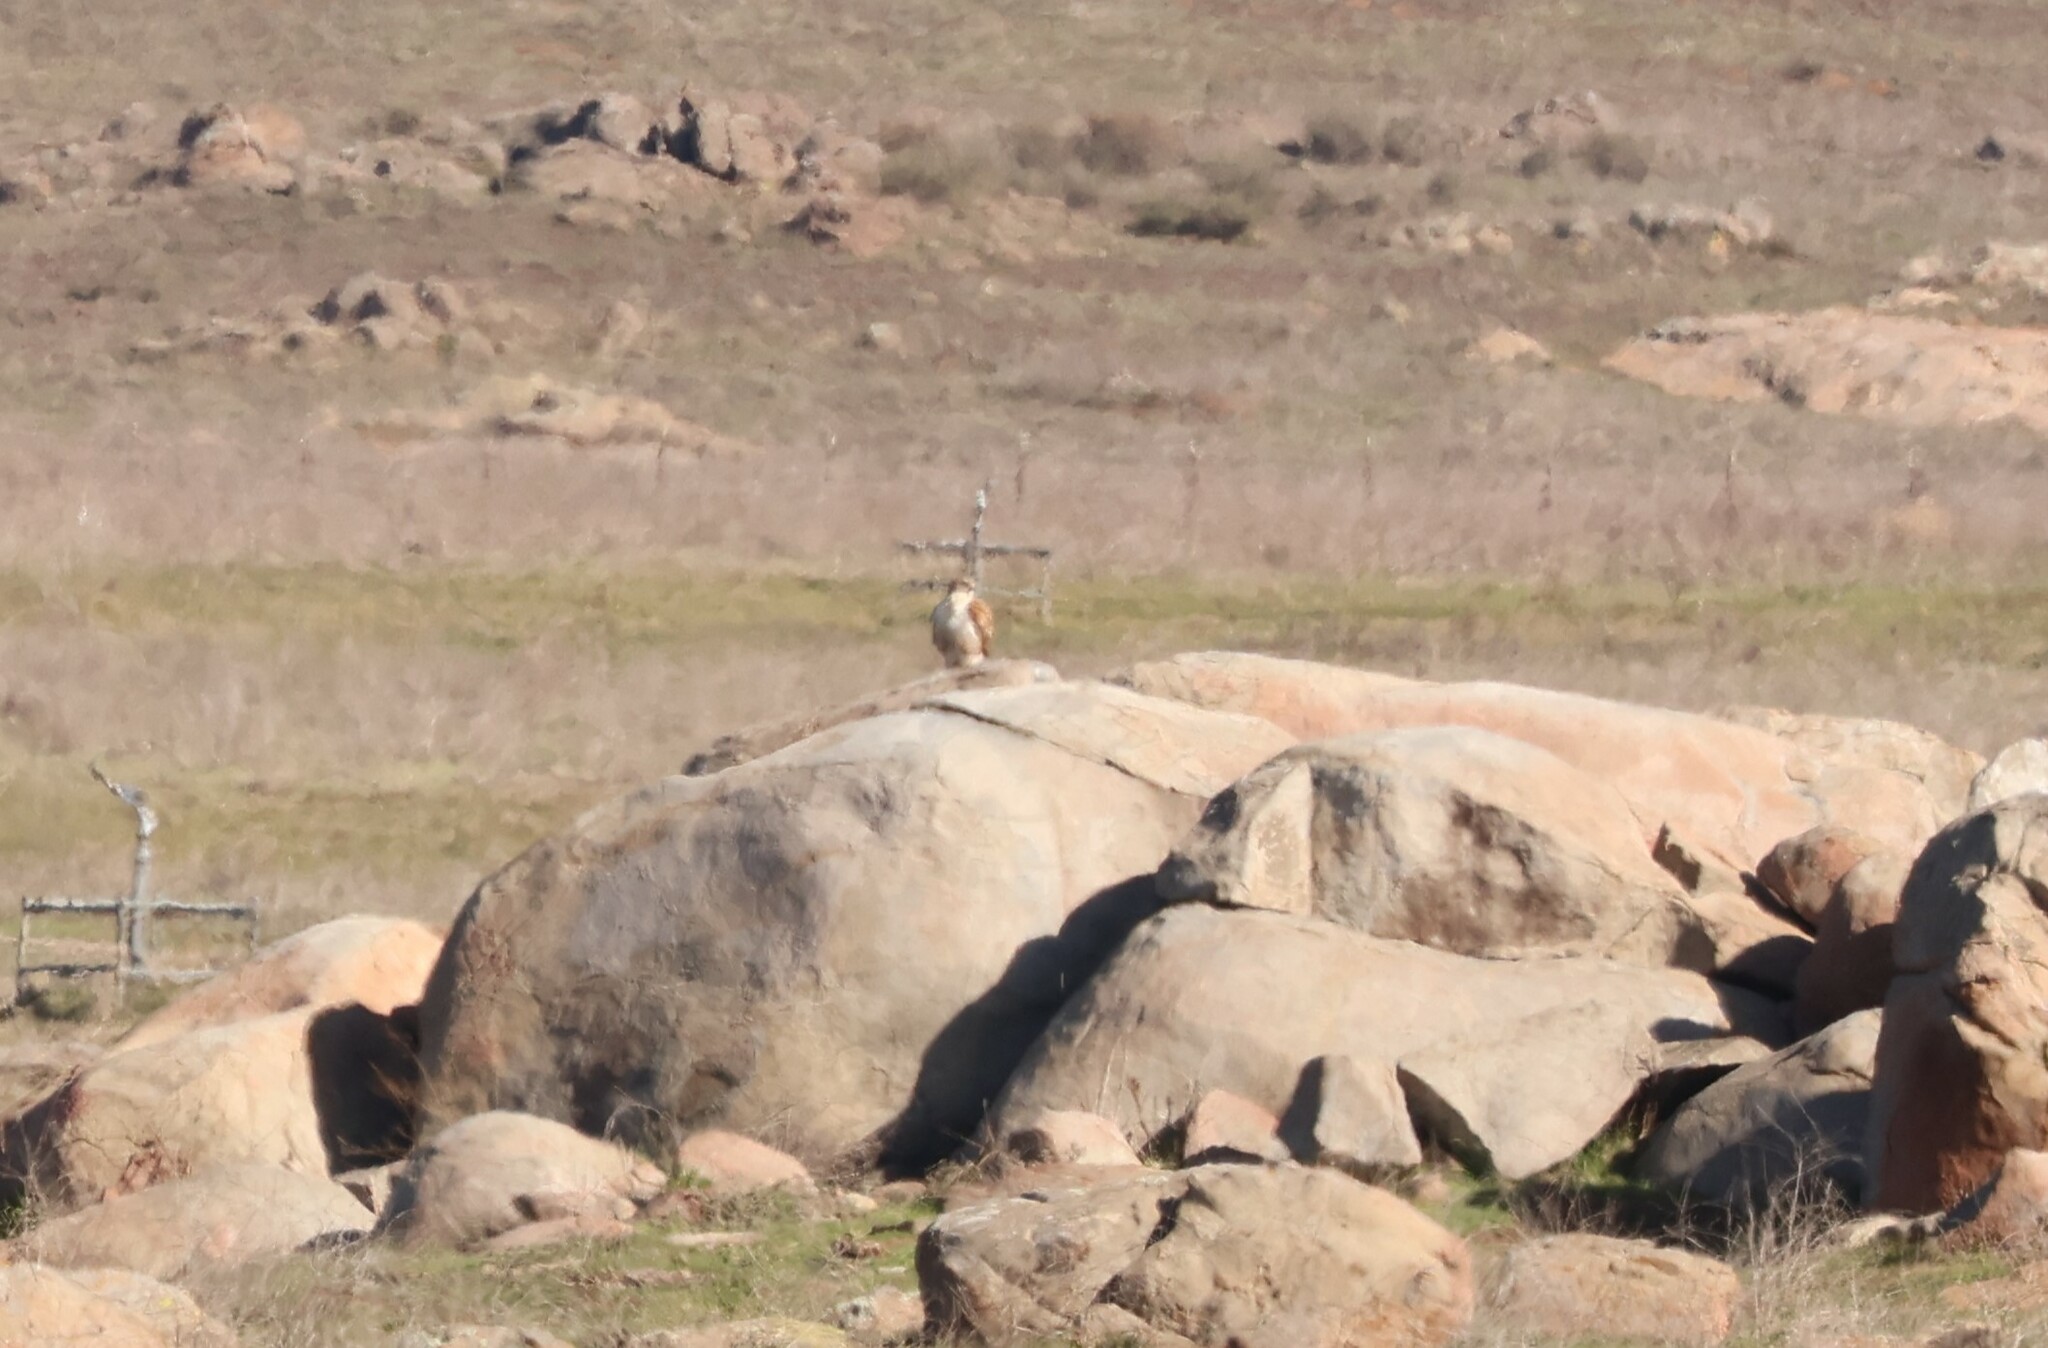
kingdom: Animalia
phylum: Chordata
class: Aves
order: Accipitriformes
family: Accipitridae
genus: Buteo
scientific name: Buteo regalis
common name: Ferruginous hawk
